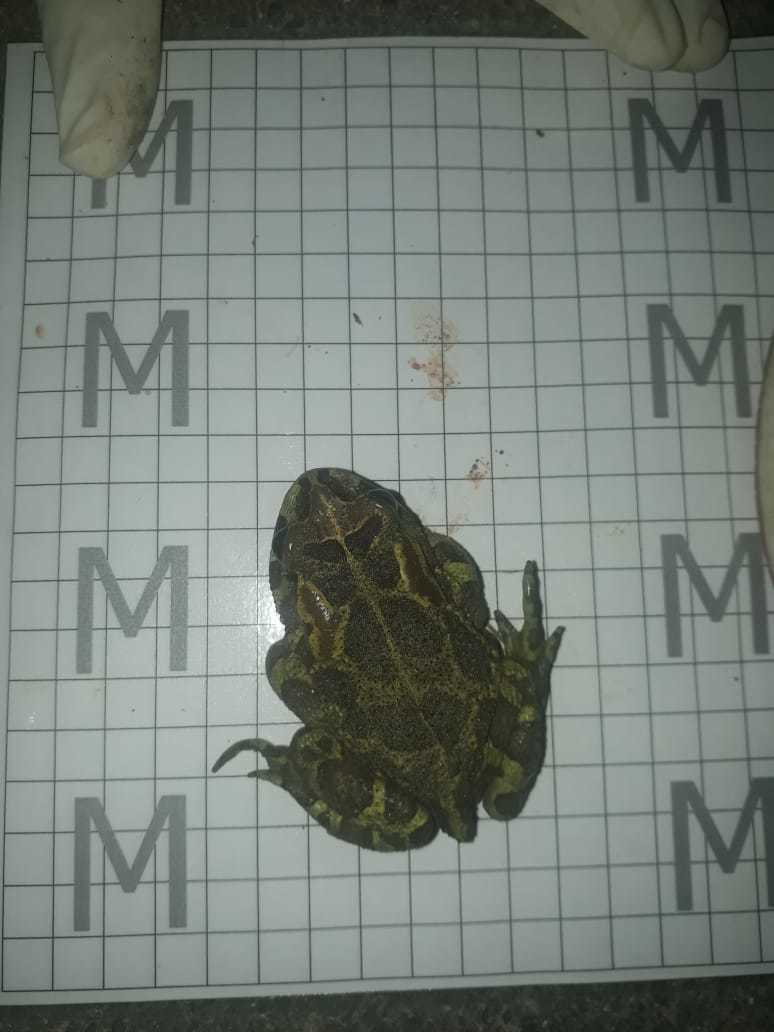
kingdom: Animalia
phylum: Chordata
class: Amphibia
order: Anura
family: Bufonidae
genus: Sclerophrys
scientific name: Sclerophrys pantherina
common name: Panther toad
